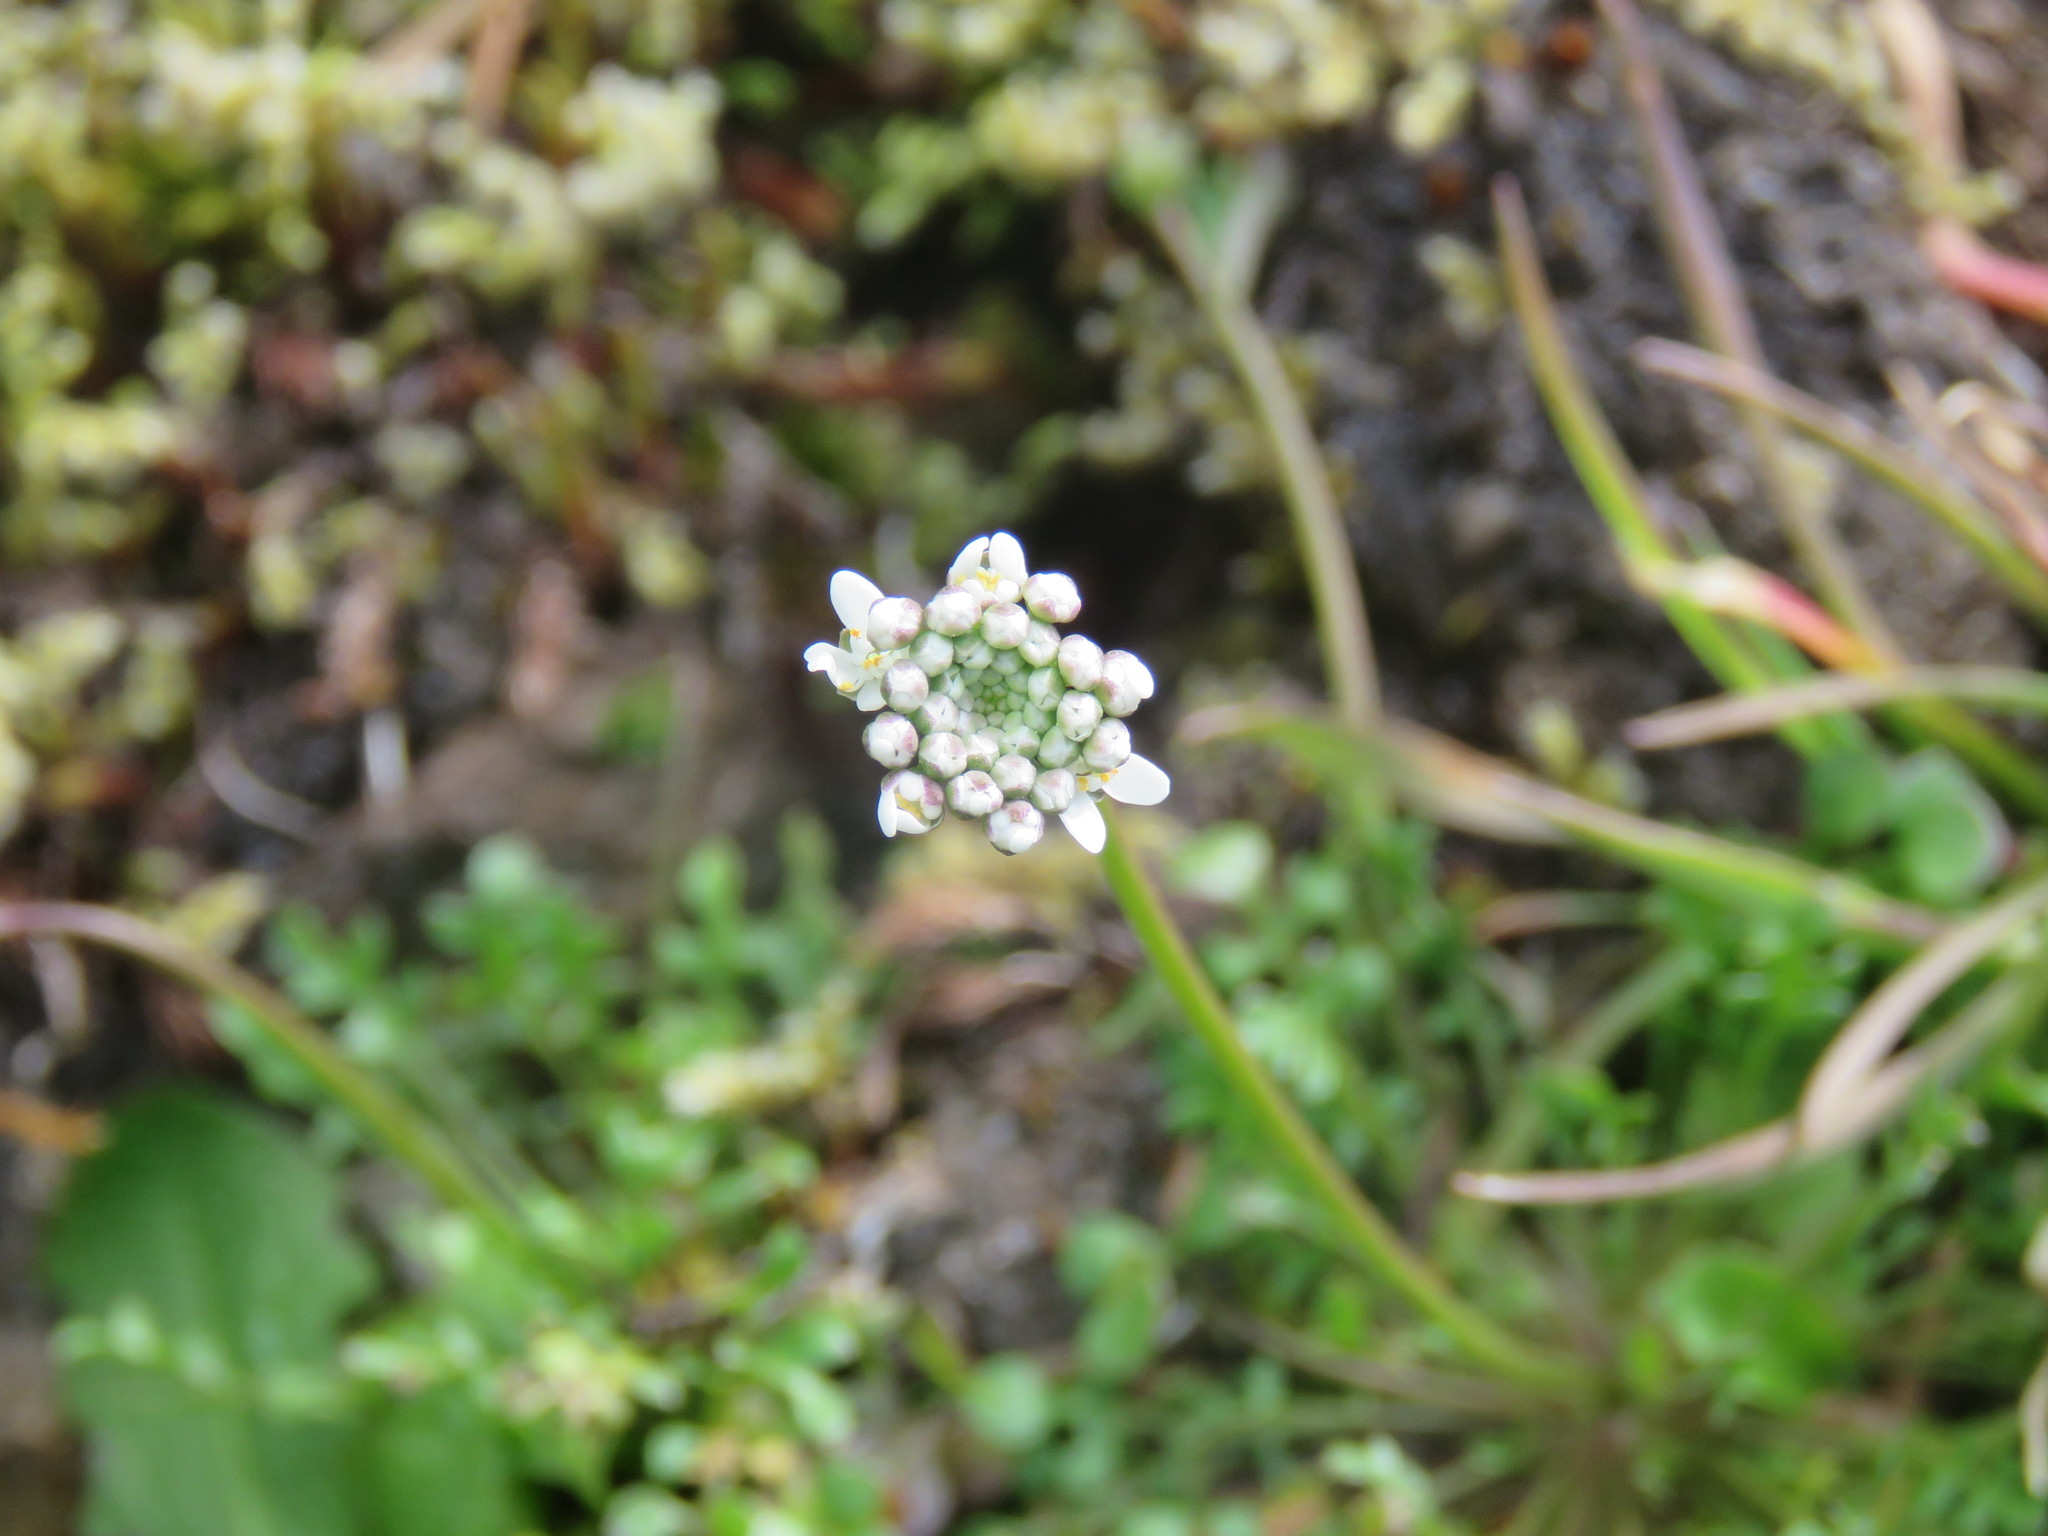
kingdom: Plantae
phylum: Tracheophyta
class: Magnoliopsida
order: Brassicales
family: Brassicaceae
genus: Teesdalia
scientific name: Teesdalia nudicaulis
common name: Shepherd's cress
